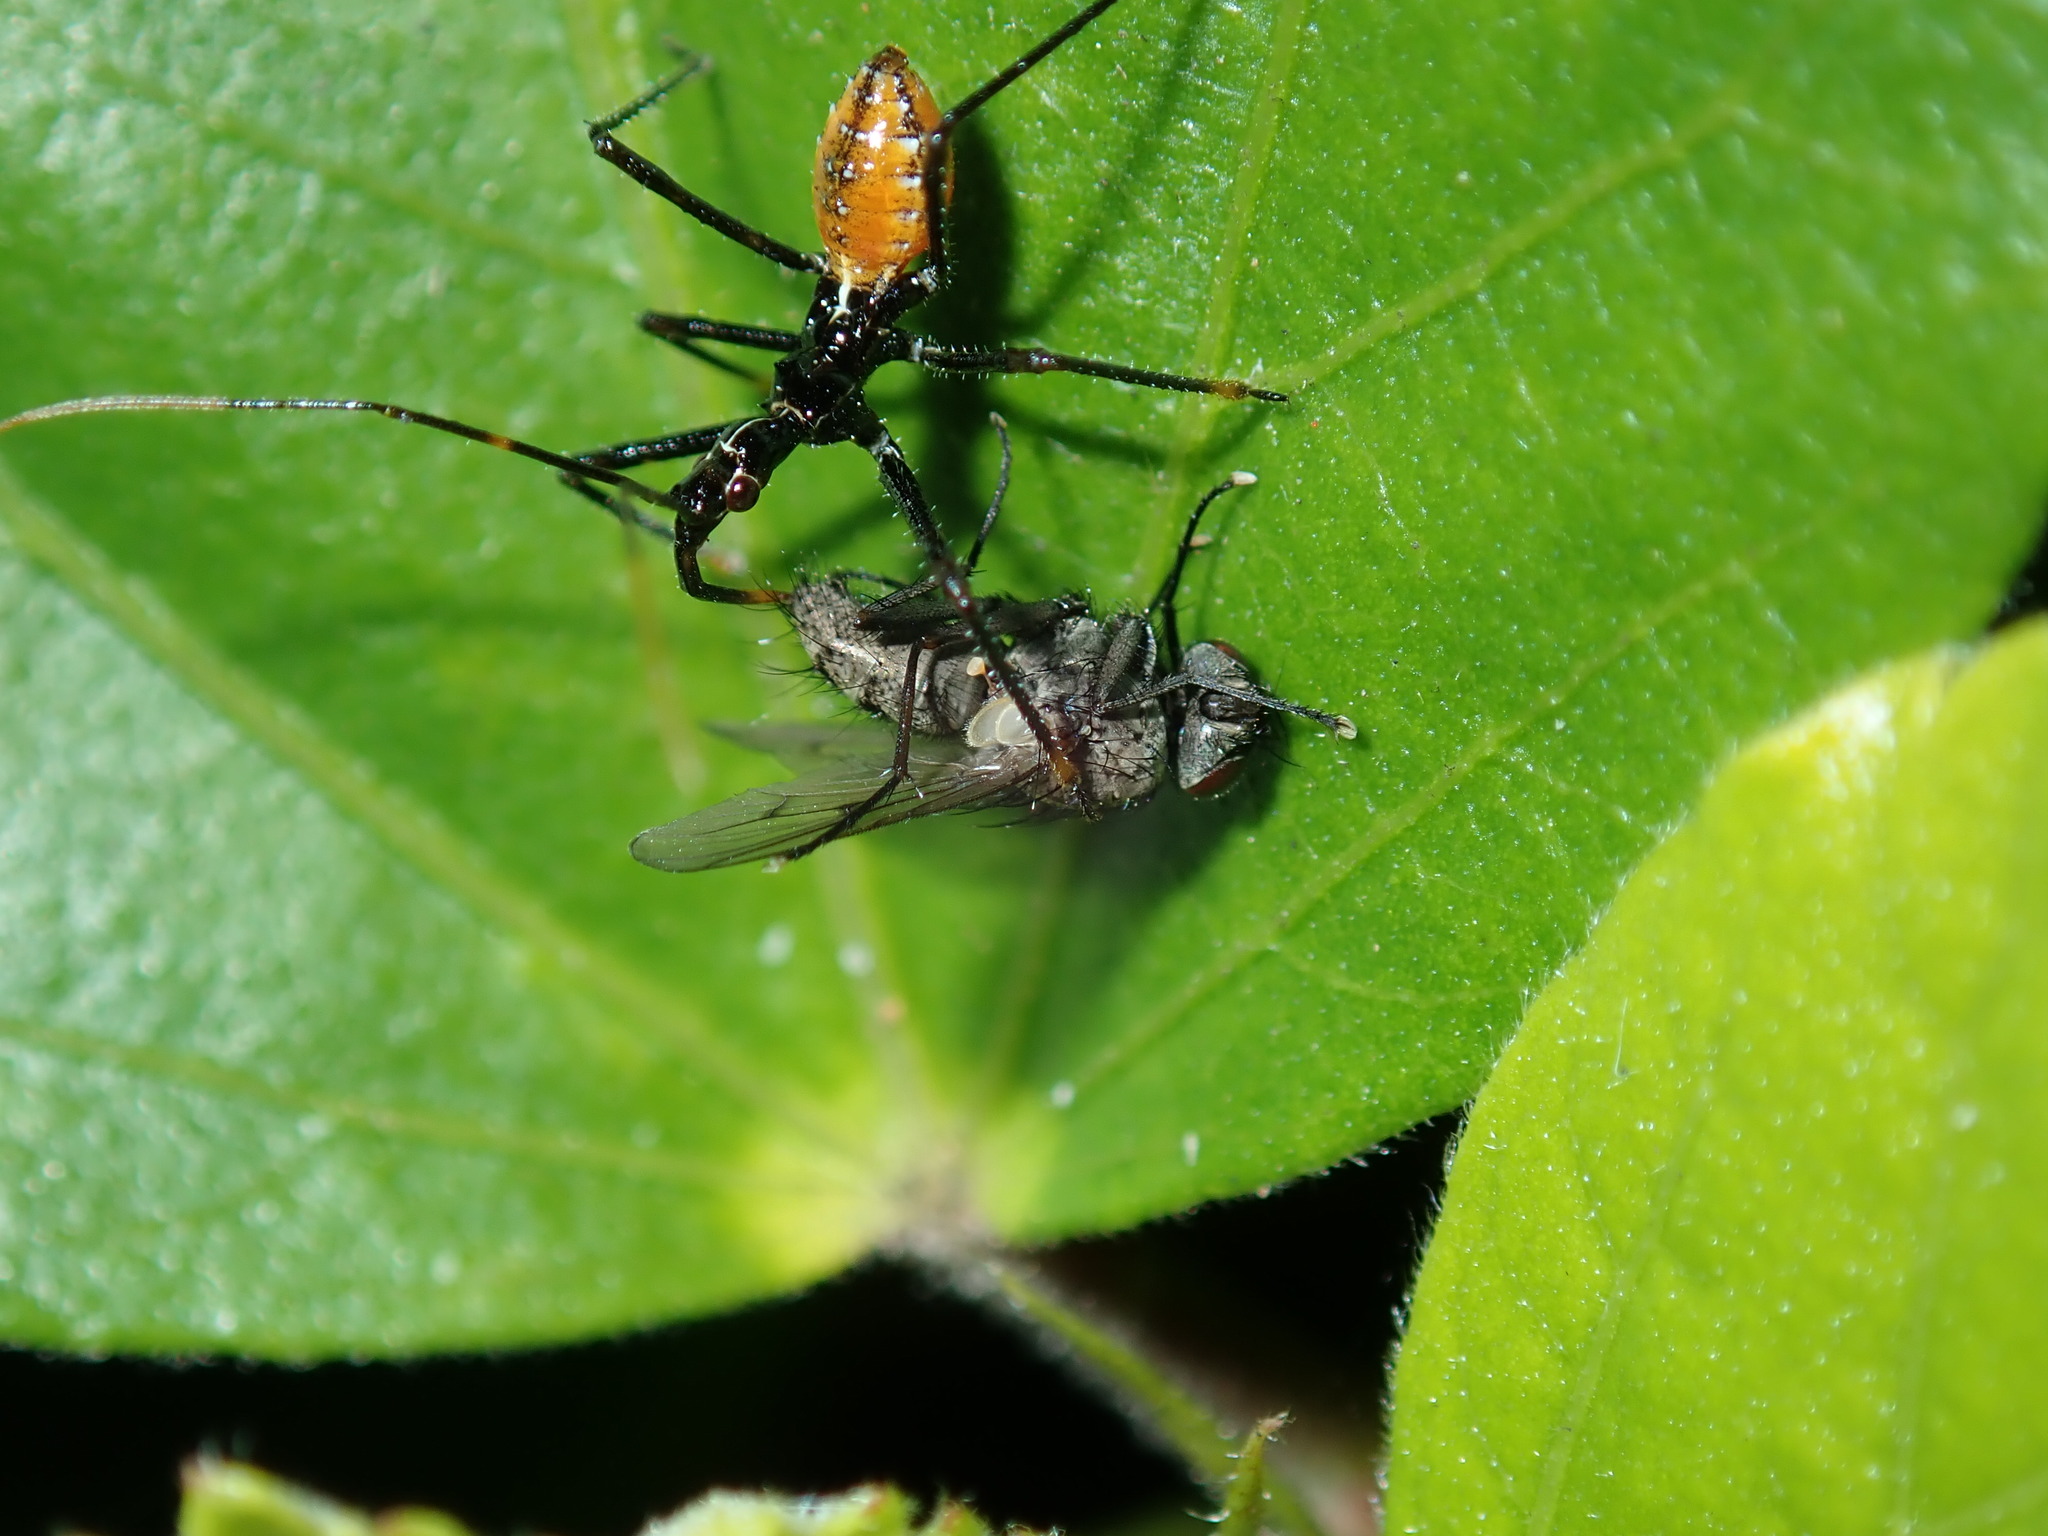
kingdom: Animalia
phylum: Arthropoda
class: Insecta
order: Hemiptera
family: Reduviidae
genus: Pristhesancus
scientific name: Pristhesancus plagipennis
